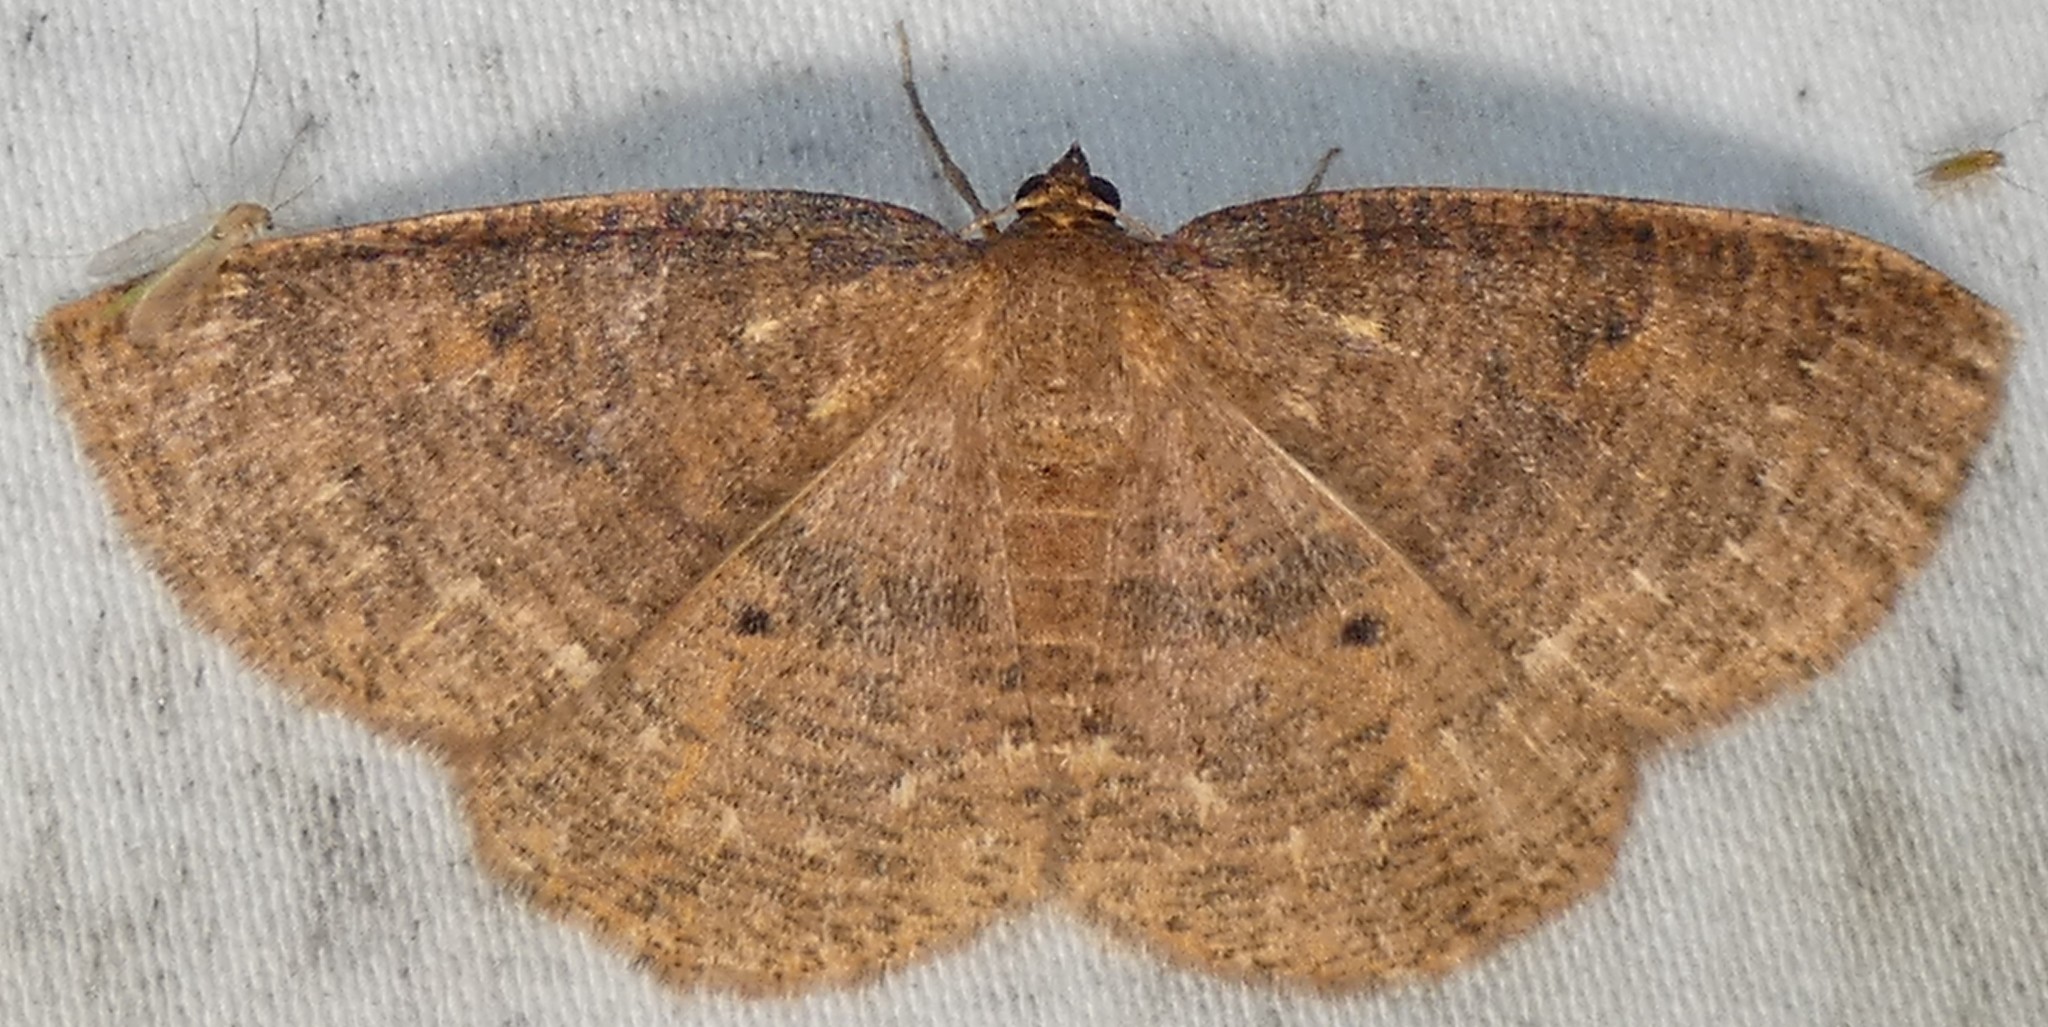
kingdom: Animalia
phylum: Arthropoda
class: Insecta
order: Lepidoptera
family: Geometridae
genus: Ilexia
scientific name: Ilexia intractata
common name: Black-dotted ruddy moth
